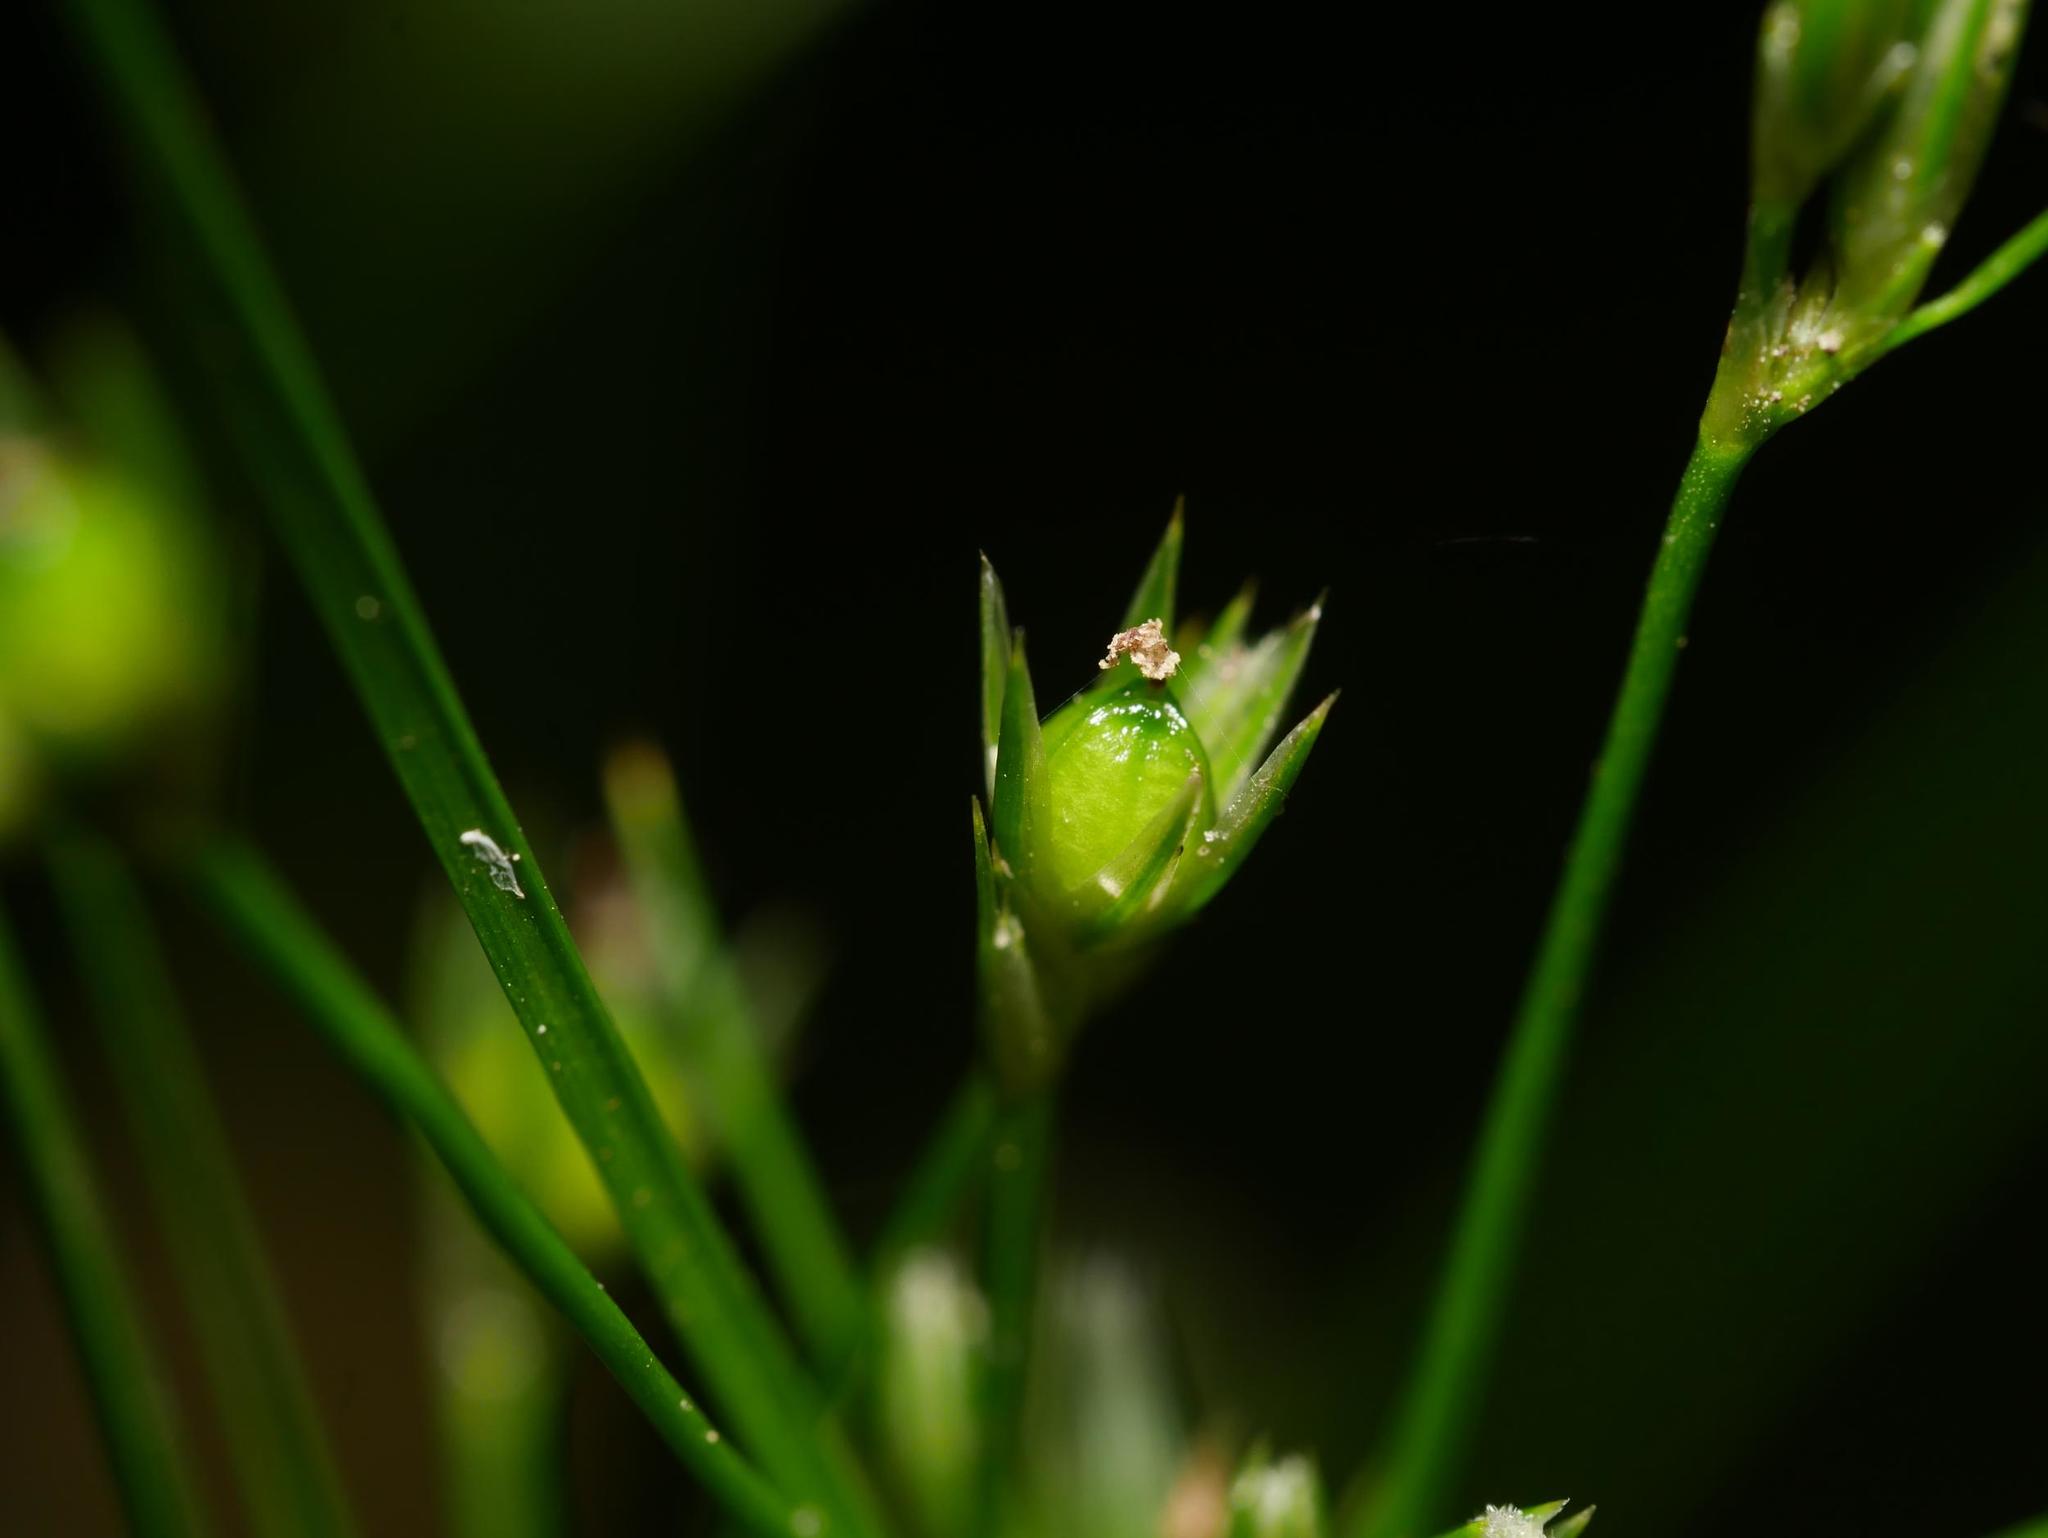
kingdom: Plantae
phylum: Tracheophyta
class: Liliopsida
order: Poales
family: Juncaceae
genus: Juncus
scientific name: Juncus tenuis
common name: Slender rush
